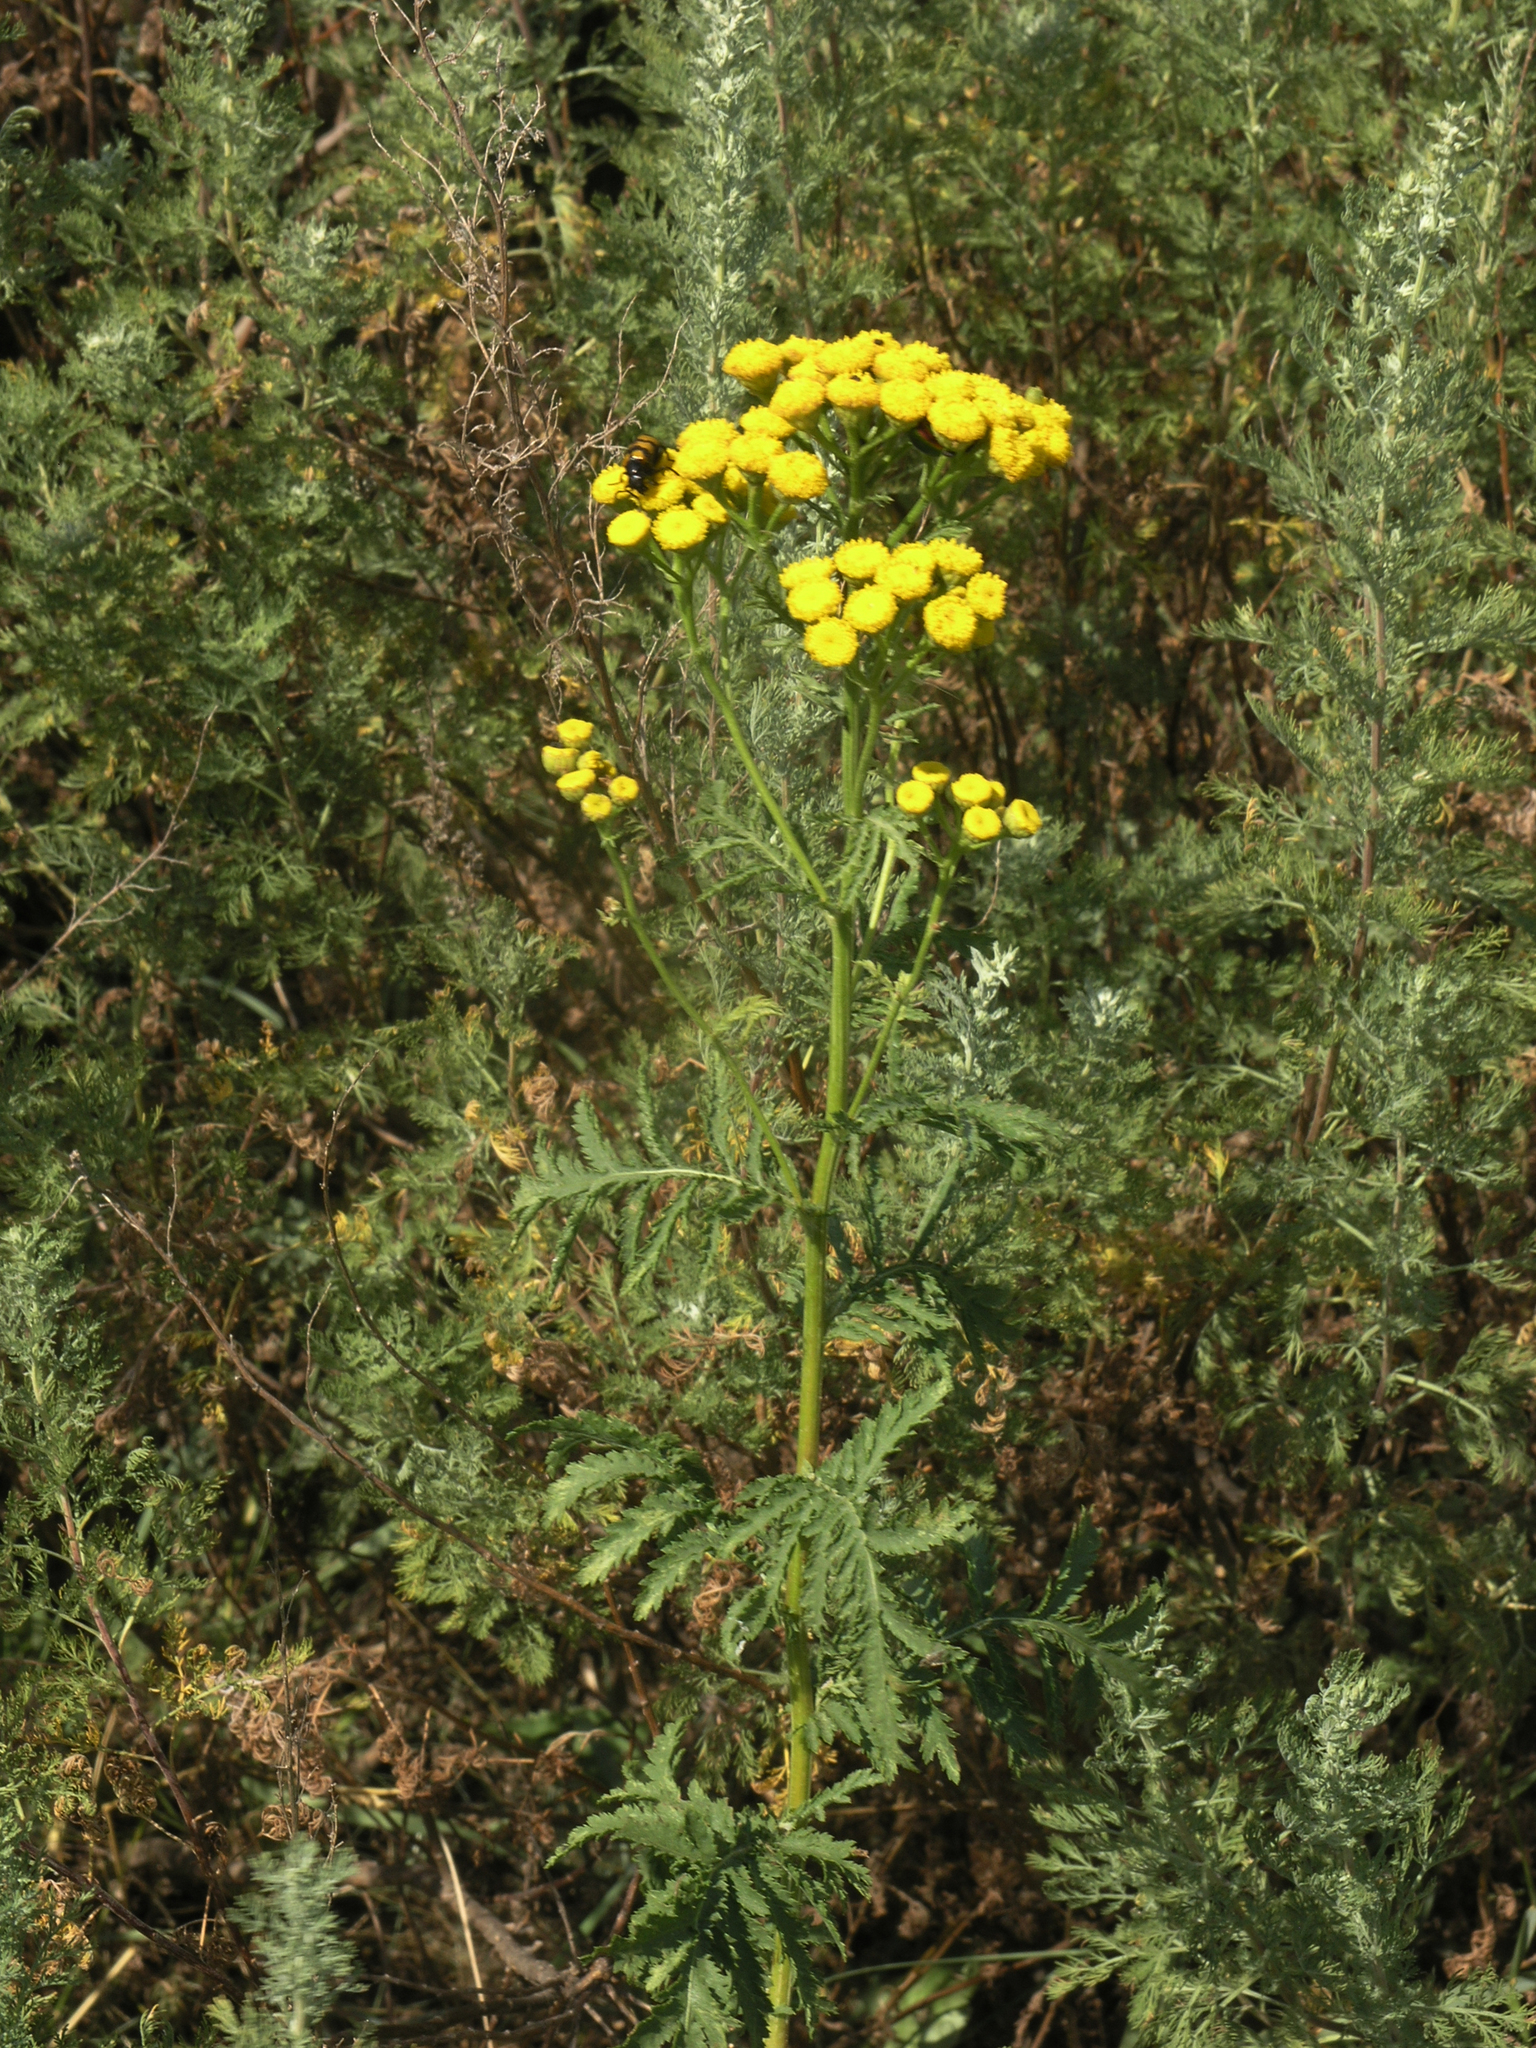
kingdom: Plantae
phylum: Tracheophyta
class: Magnoliopsida
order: Asterales
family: Asteraceae
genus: Tanacetum
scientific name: Tanacetum vulgare
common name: Common tansy
